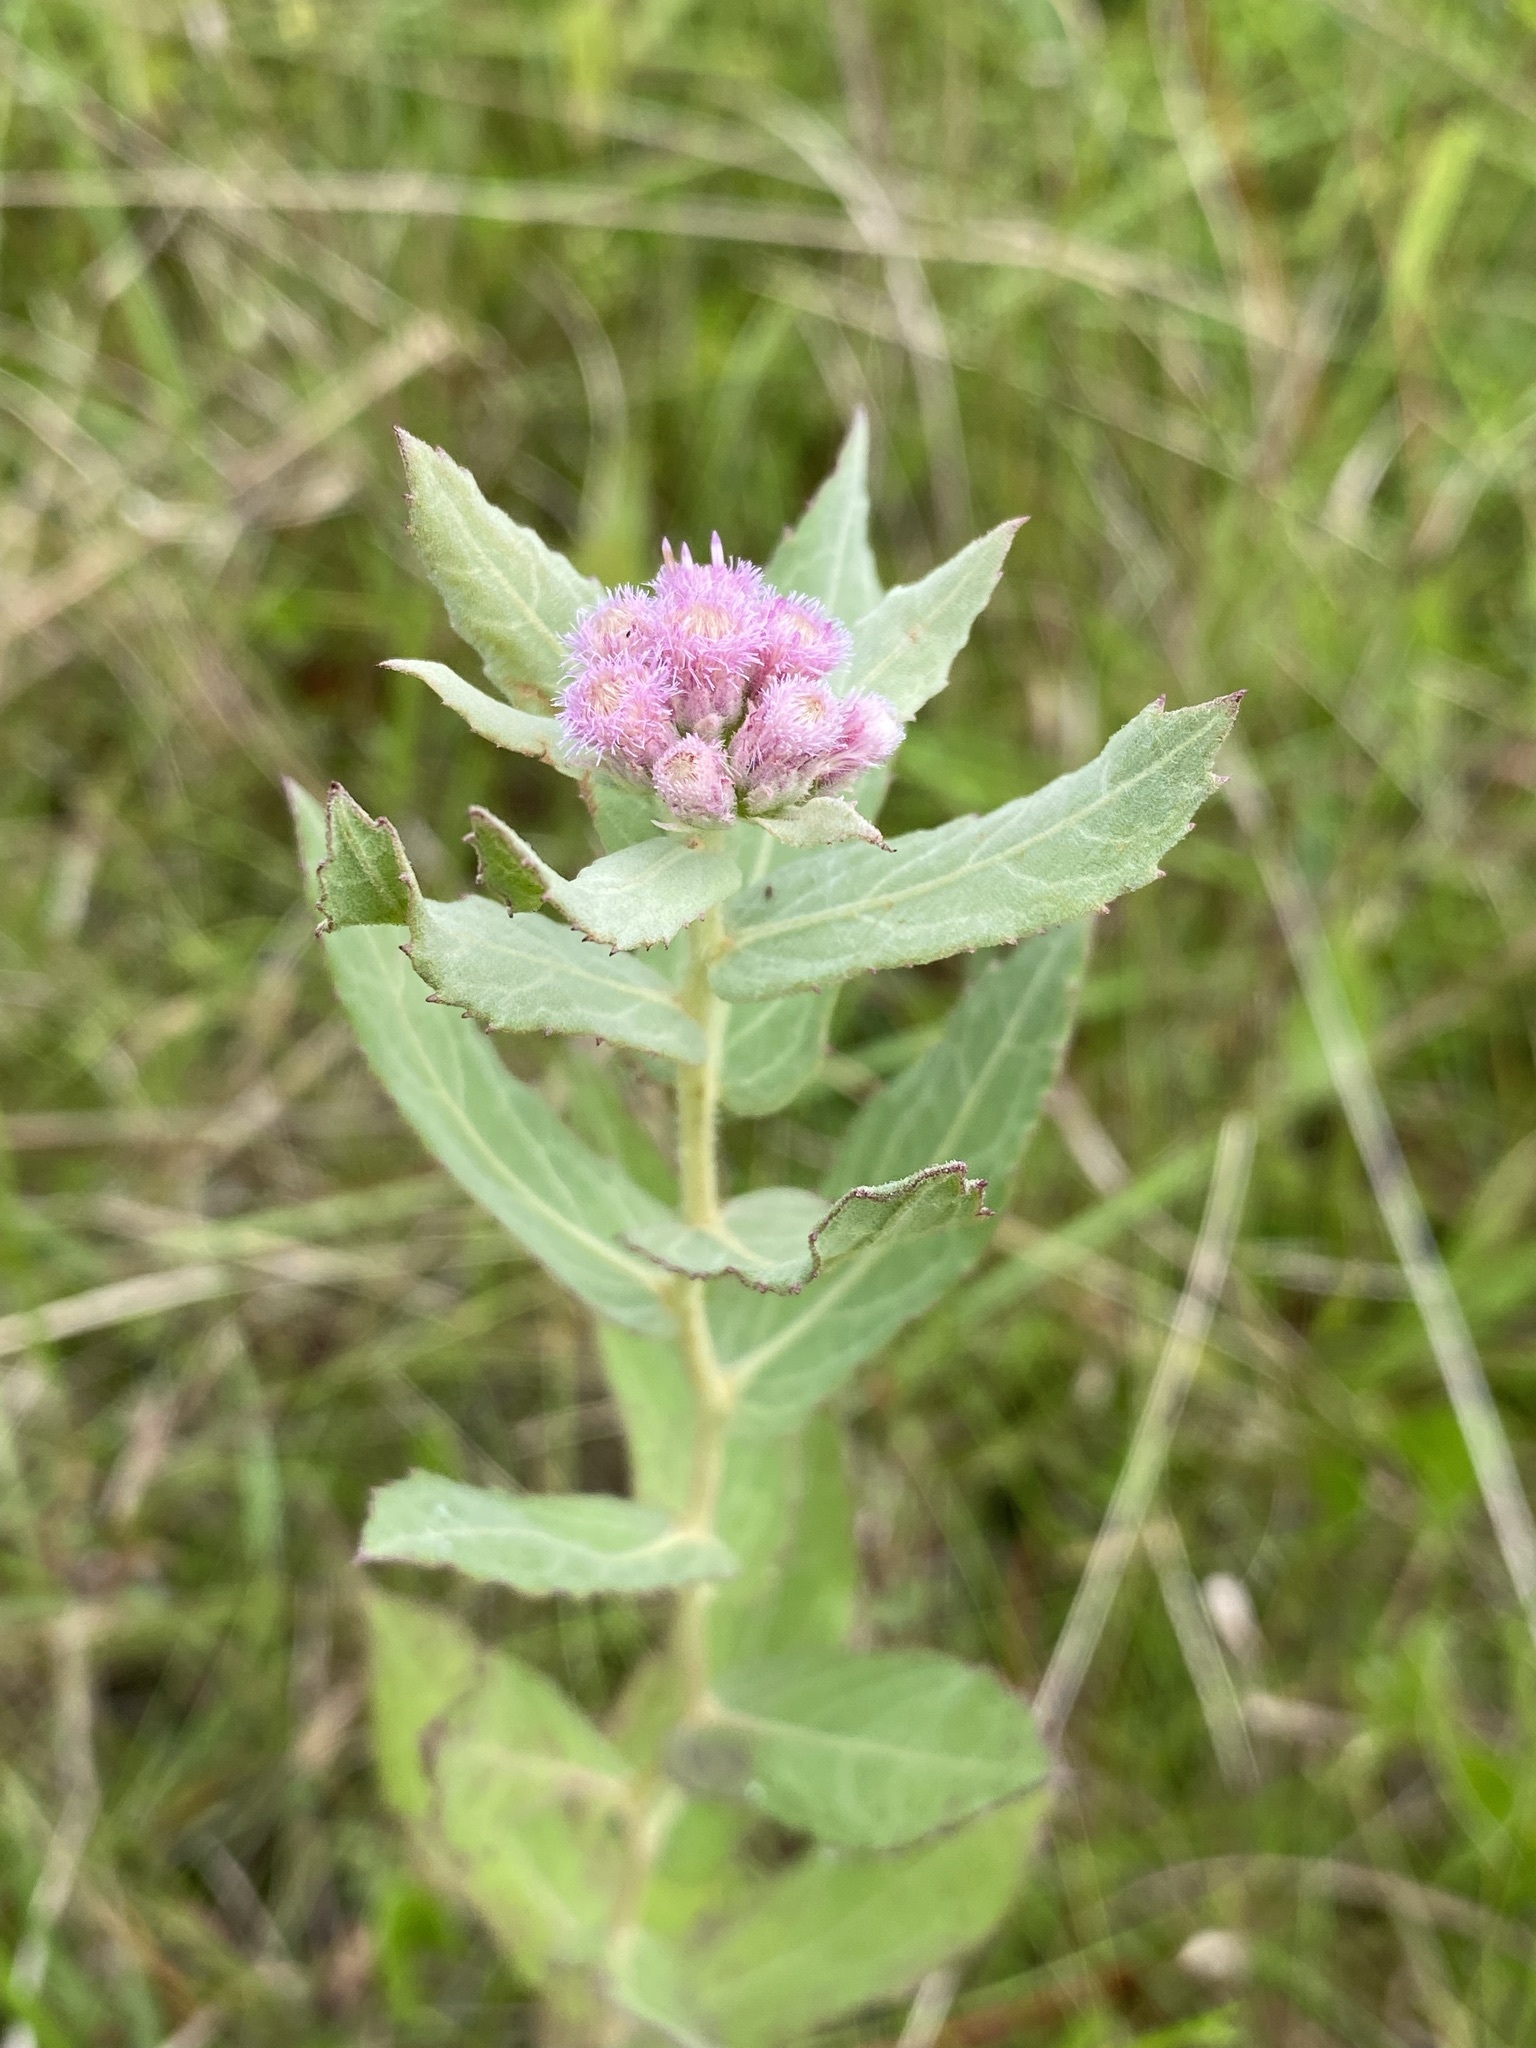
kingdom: Plantae
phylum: Tracheophyta
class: Magnoliopsida
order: Asterales
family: Asteraceae
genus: Pluchea
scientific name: Pluchea baccharis
